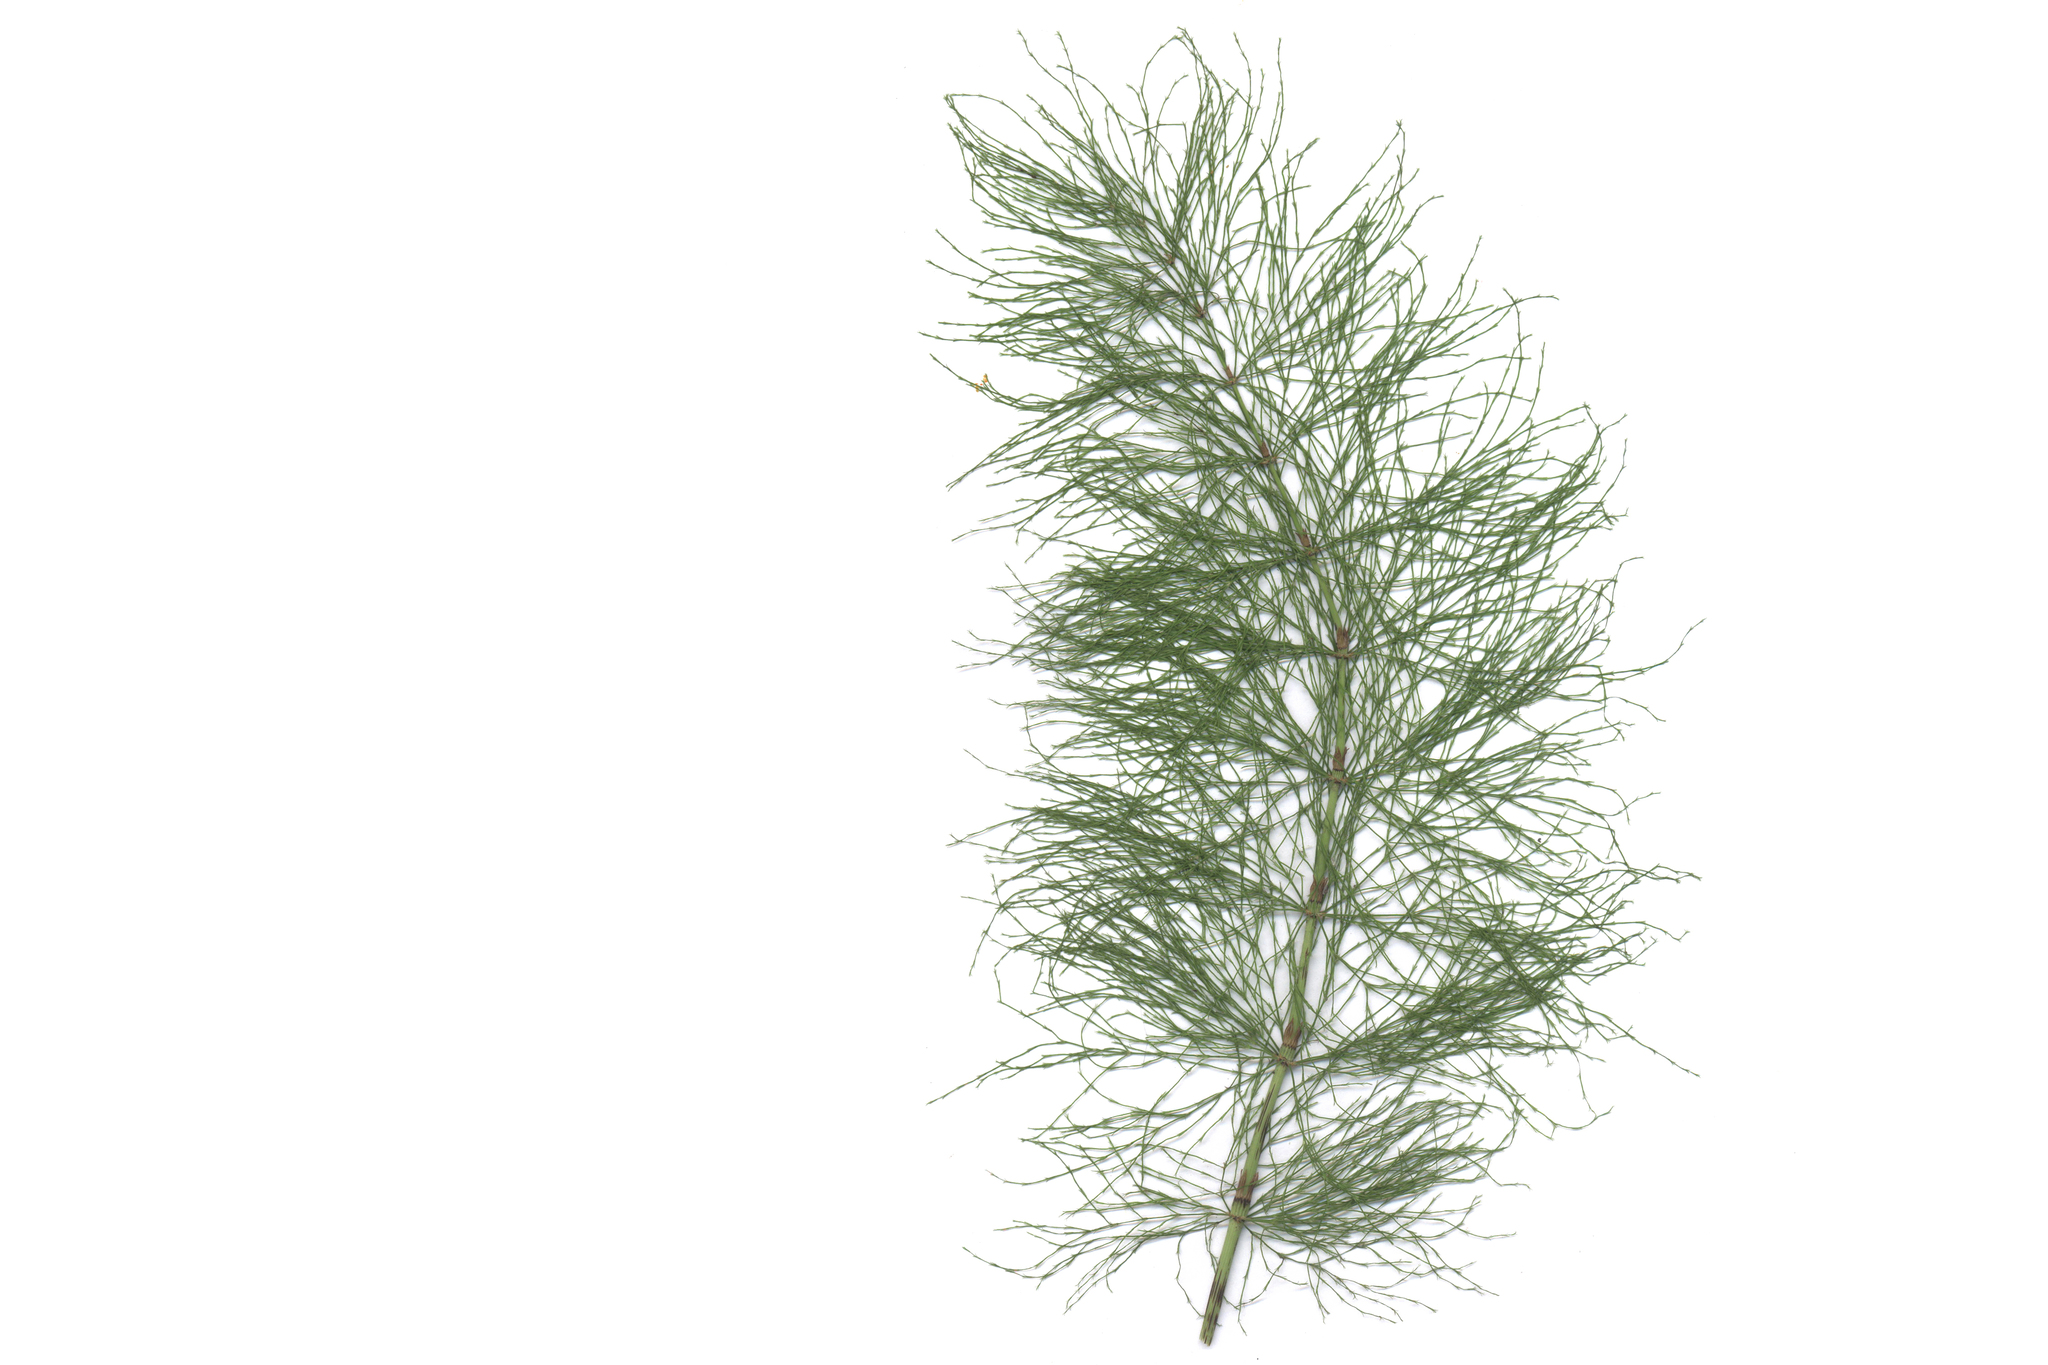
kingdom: Plantae
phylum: Tracheophyta
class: Polypodiopsida
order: Equisetales
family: Equisetaceae
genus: Equisetum
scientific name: Equisetum sylvaticum
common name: Wood horsetail
